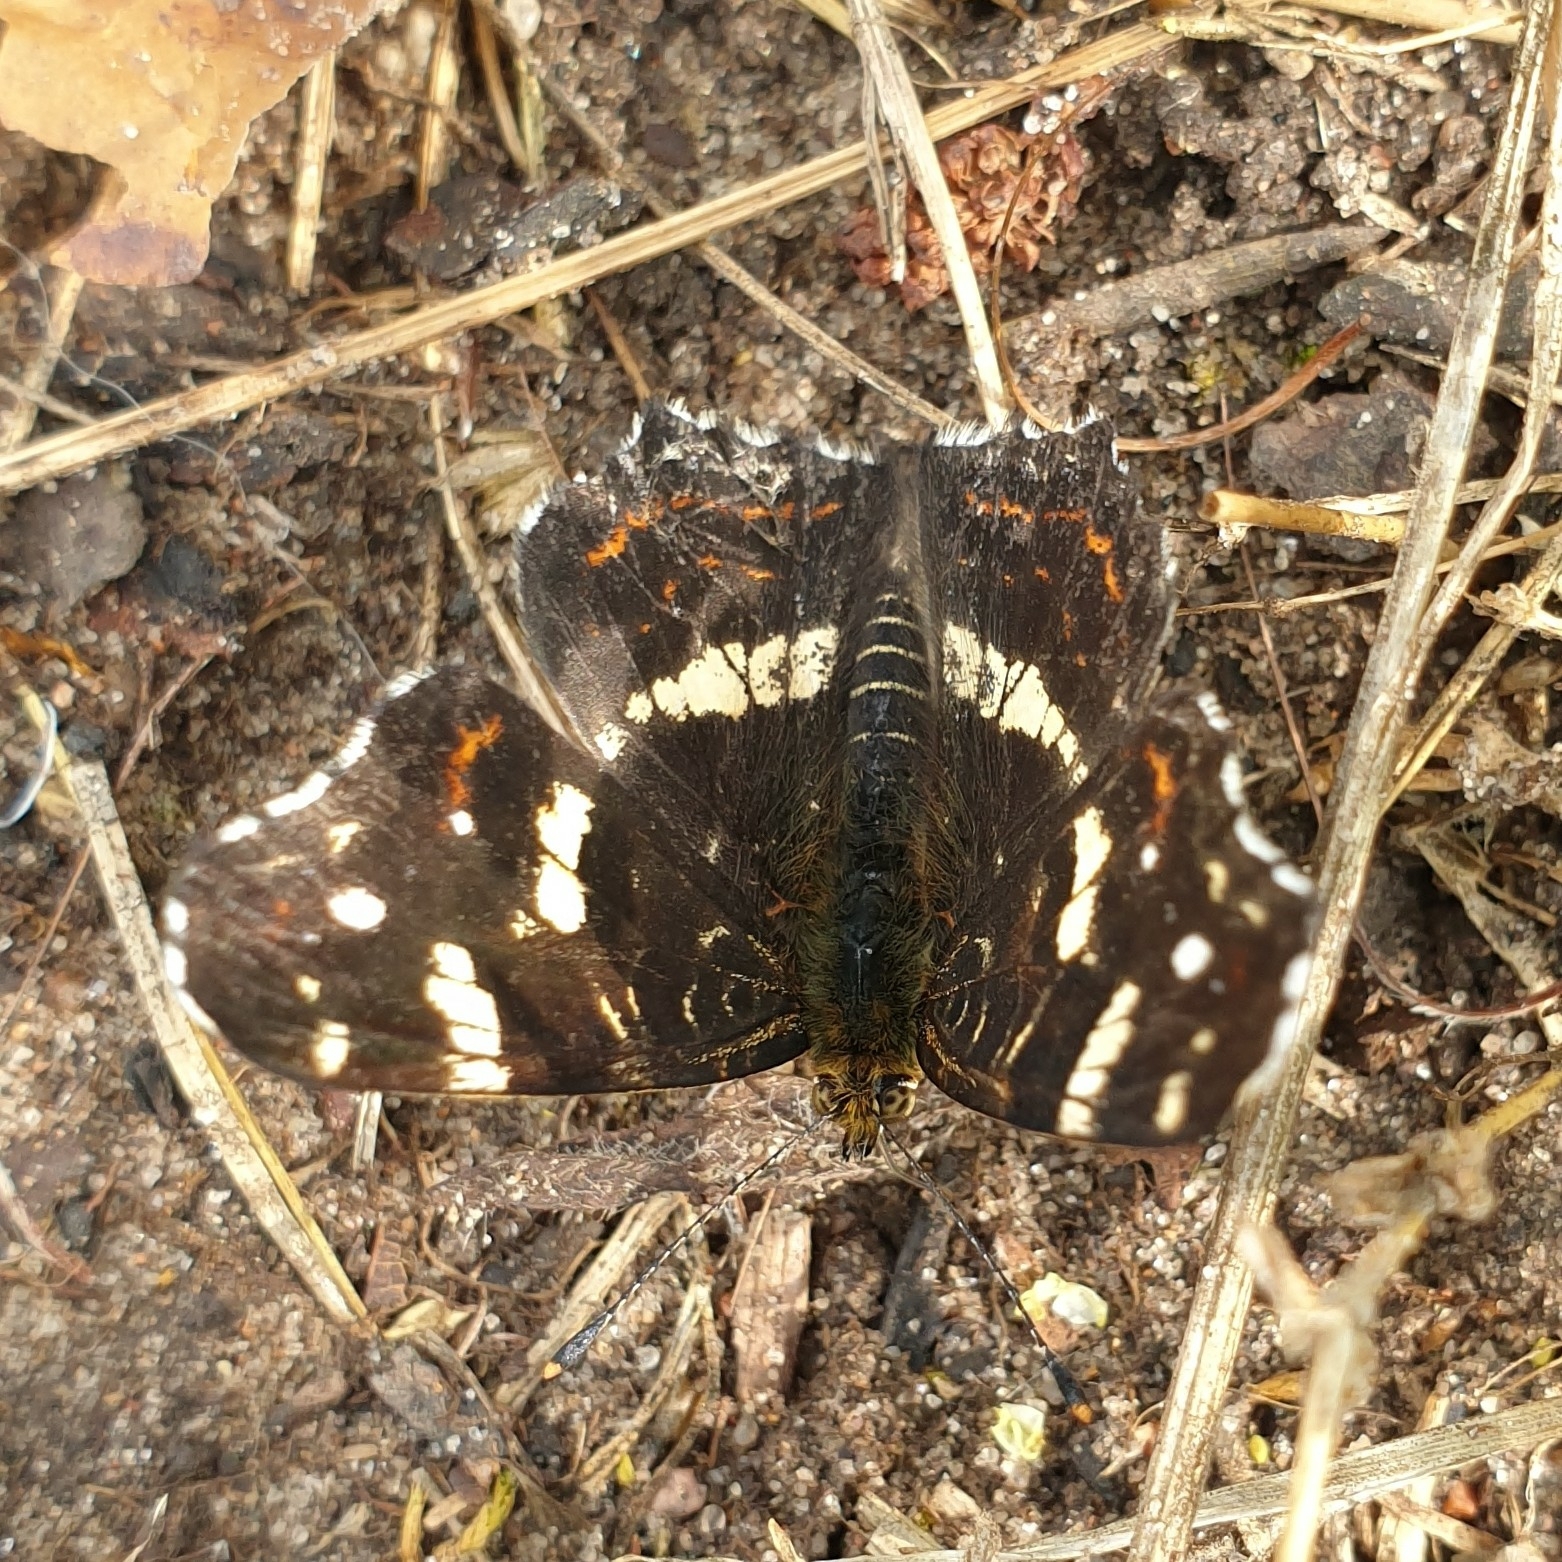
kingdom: Animalia
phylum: Arthropoda
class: Insecta
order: Lepidoptera
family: Nymphalidae
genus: Araschnia
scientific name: Araschnia levana
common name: Map butterfly
